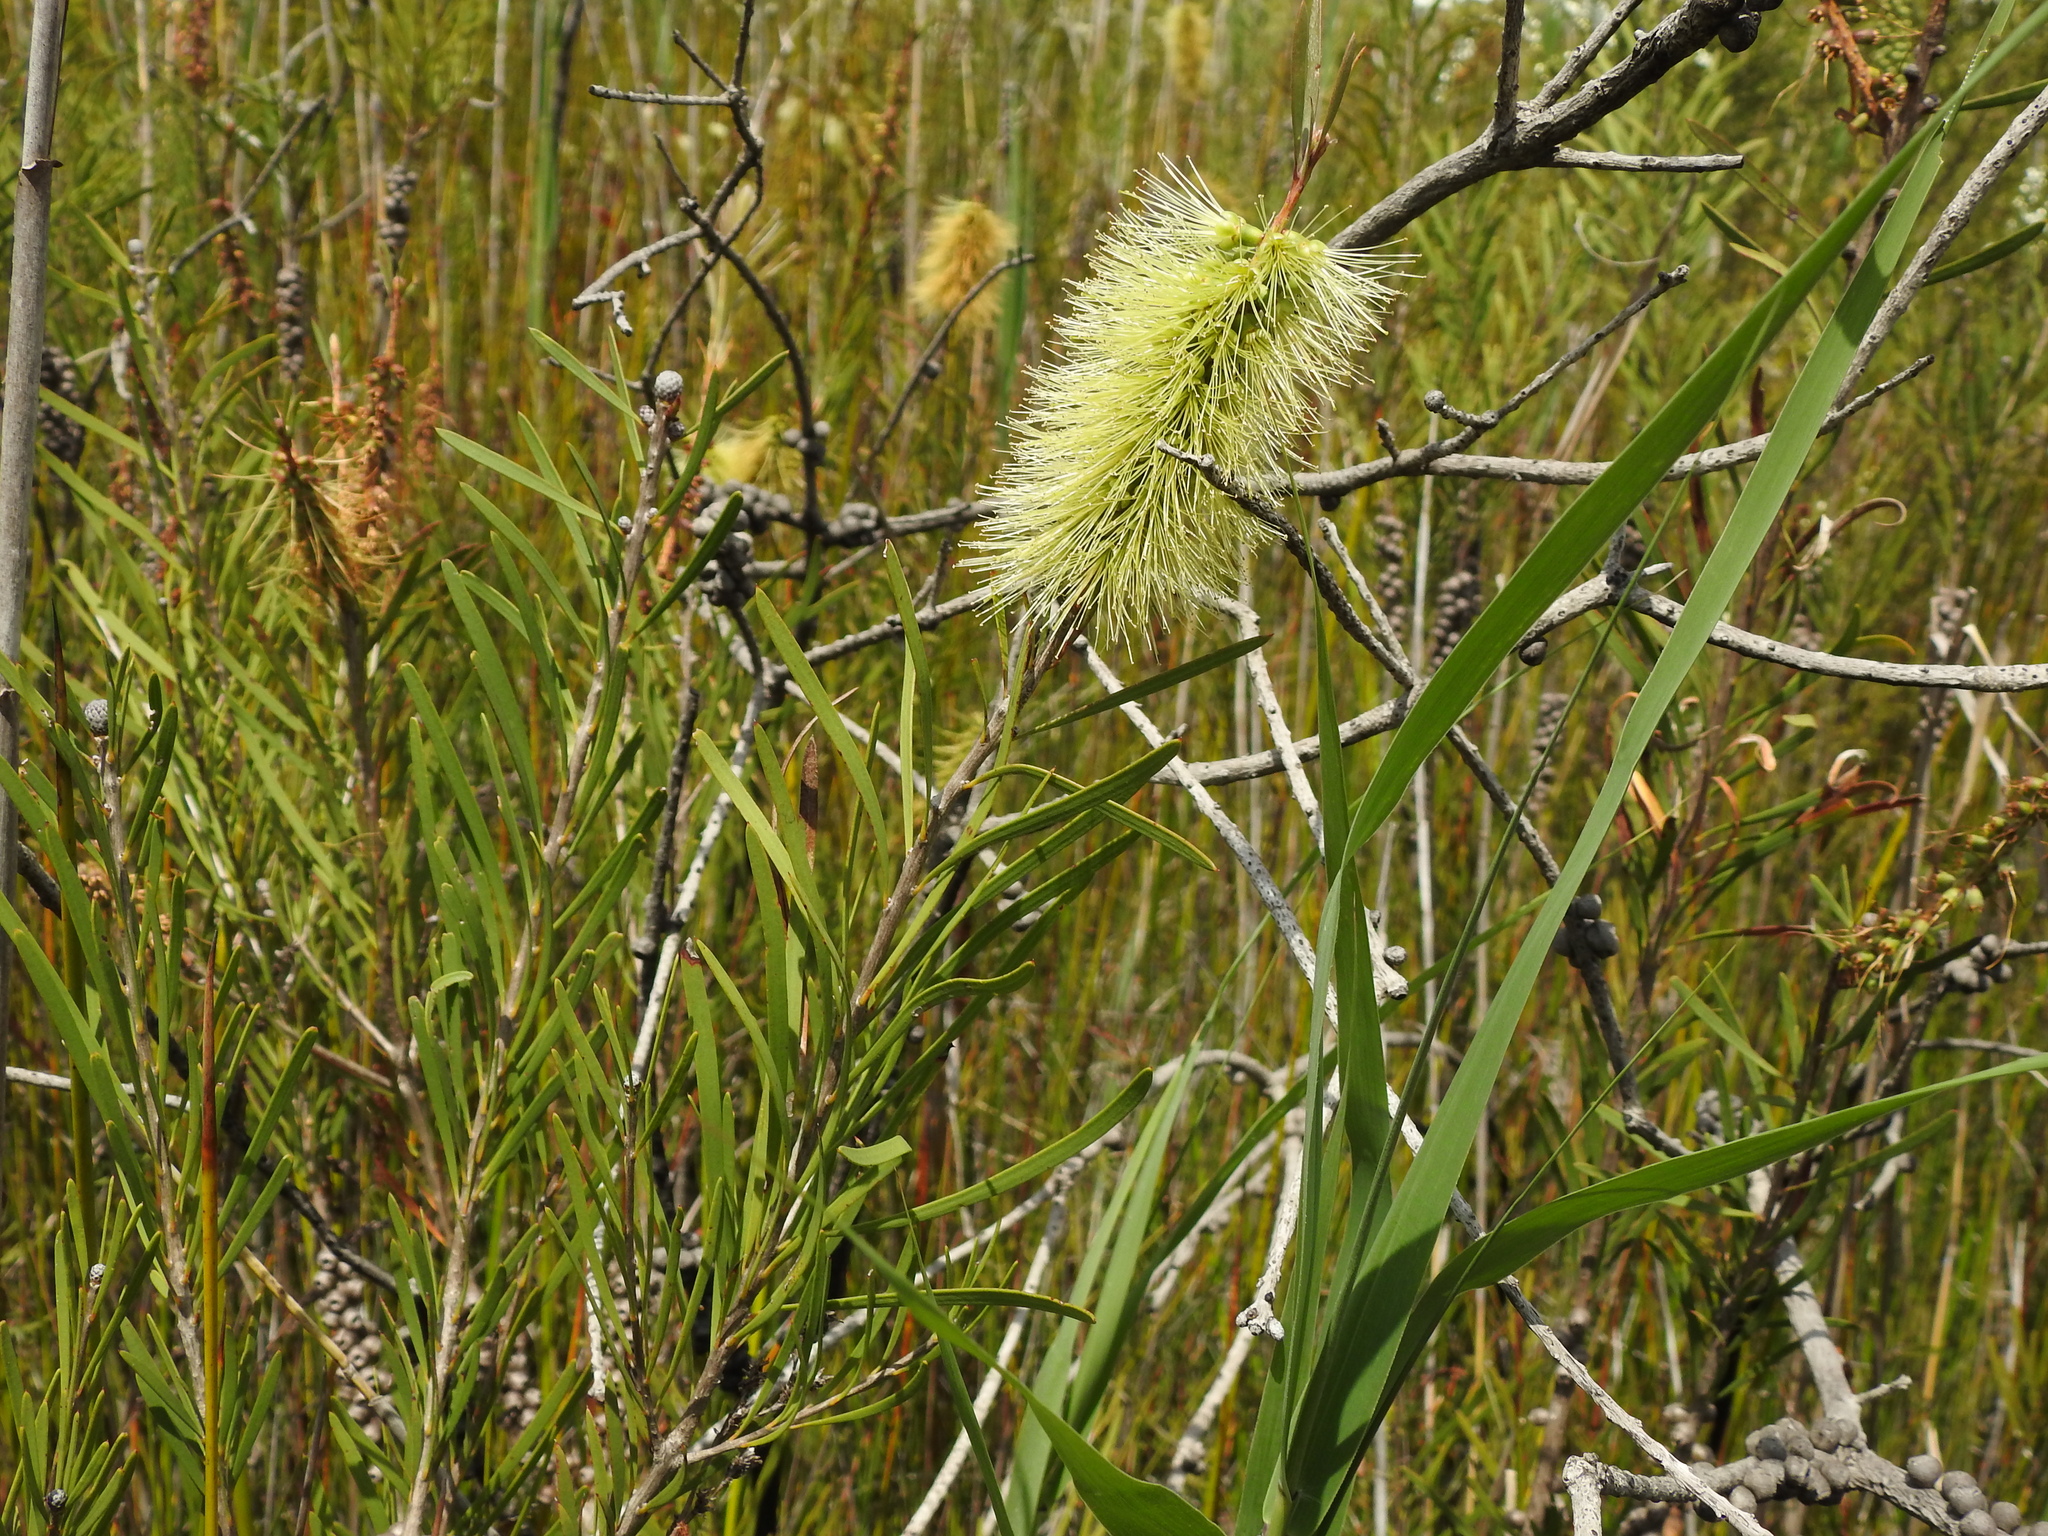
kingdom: Plantae
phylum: Tracheophyta
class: Magnoliopsida
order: Myrtales
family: Myrtaceae
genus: Callistemon
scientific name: Callistemon pachyphyllus
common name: Wallum bottlebrush
